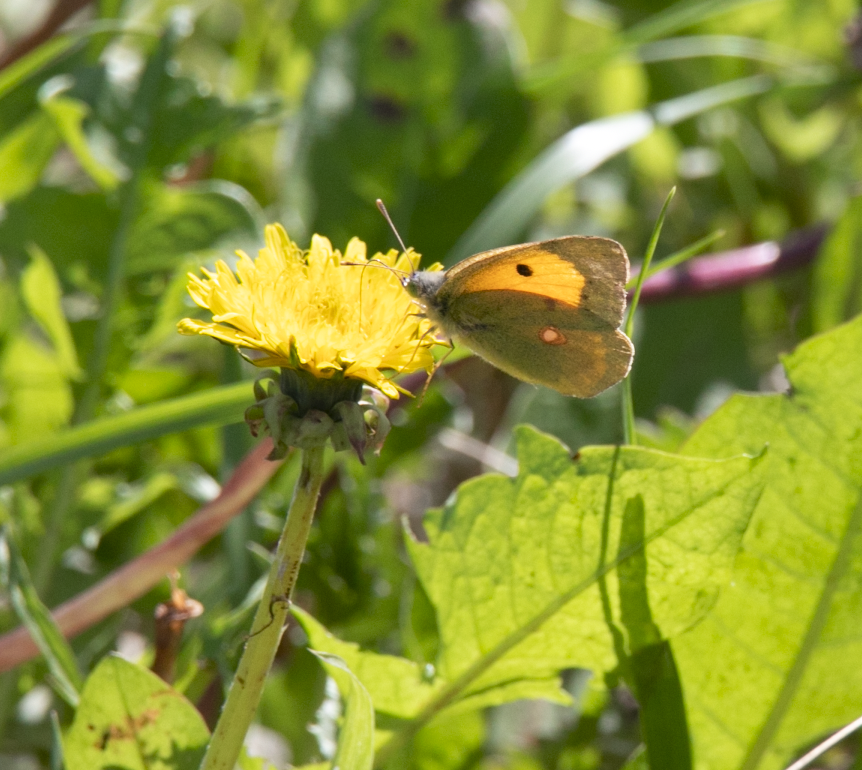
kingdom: Animalia
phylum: Arthropoda
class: Insecta
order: Lepidoptera
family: Pieridae
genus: Colias
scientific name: Colias croceus
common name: Clouded yellow
